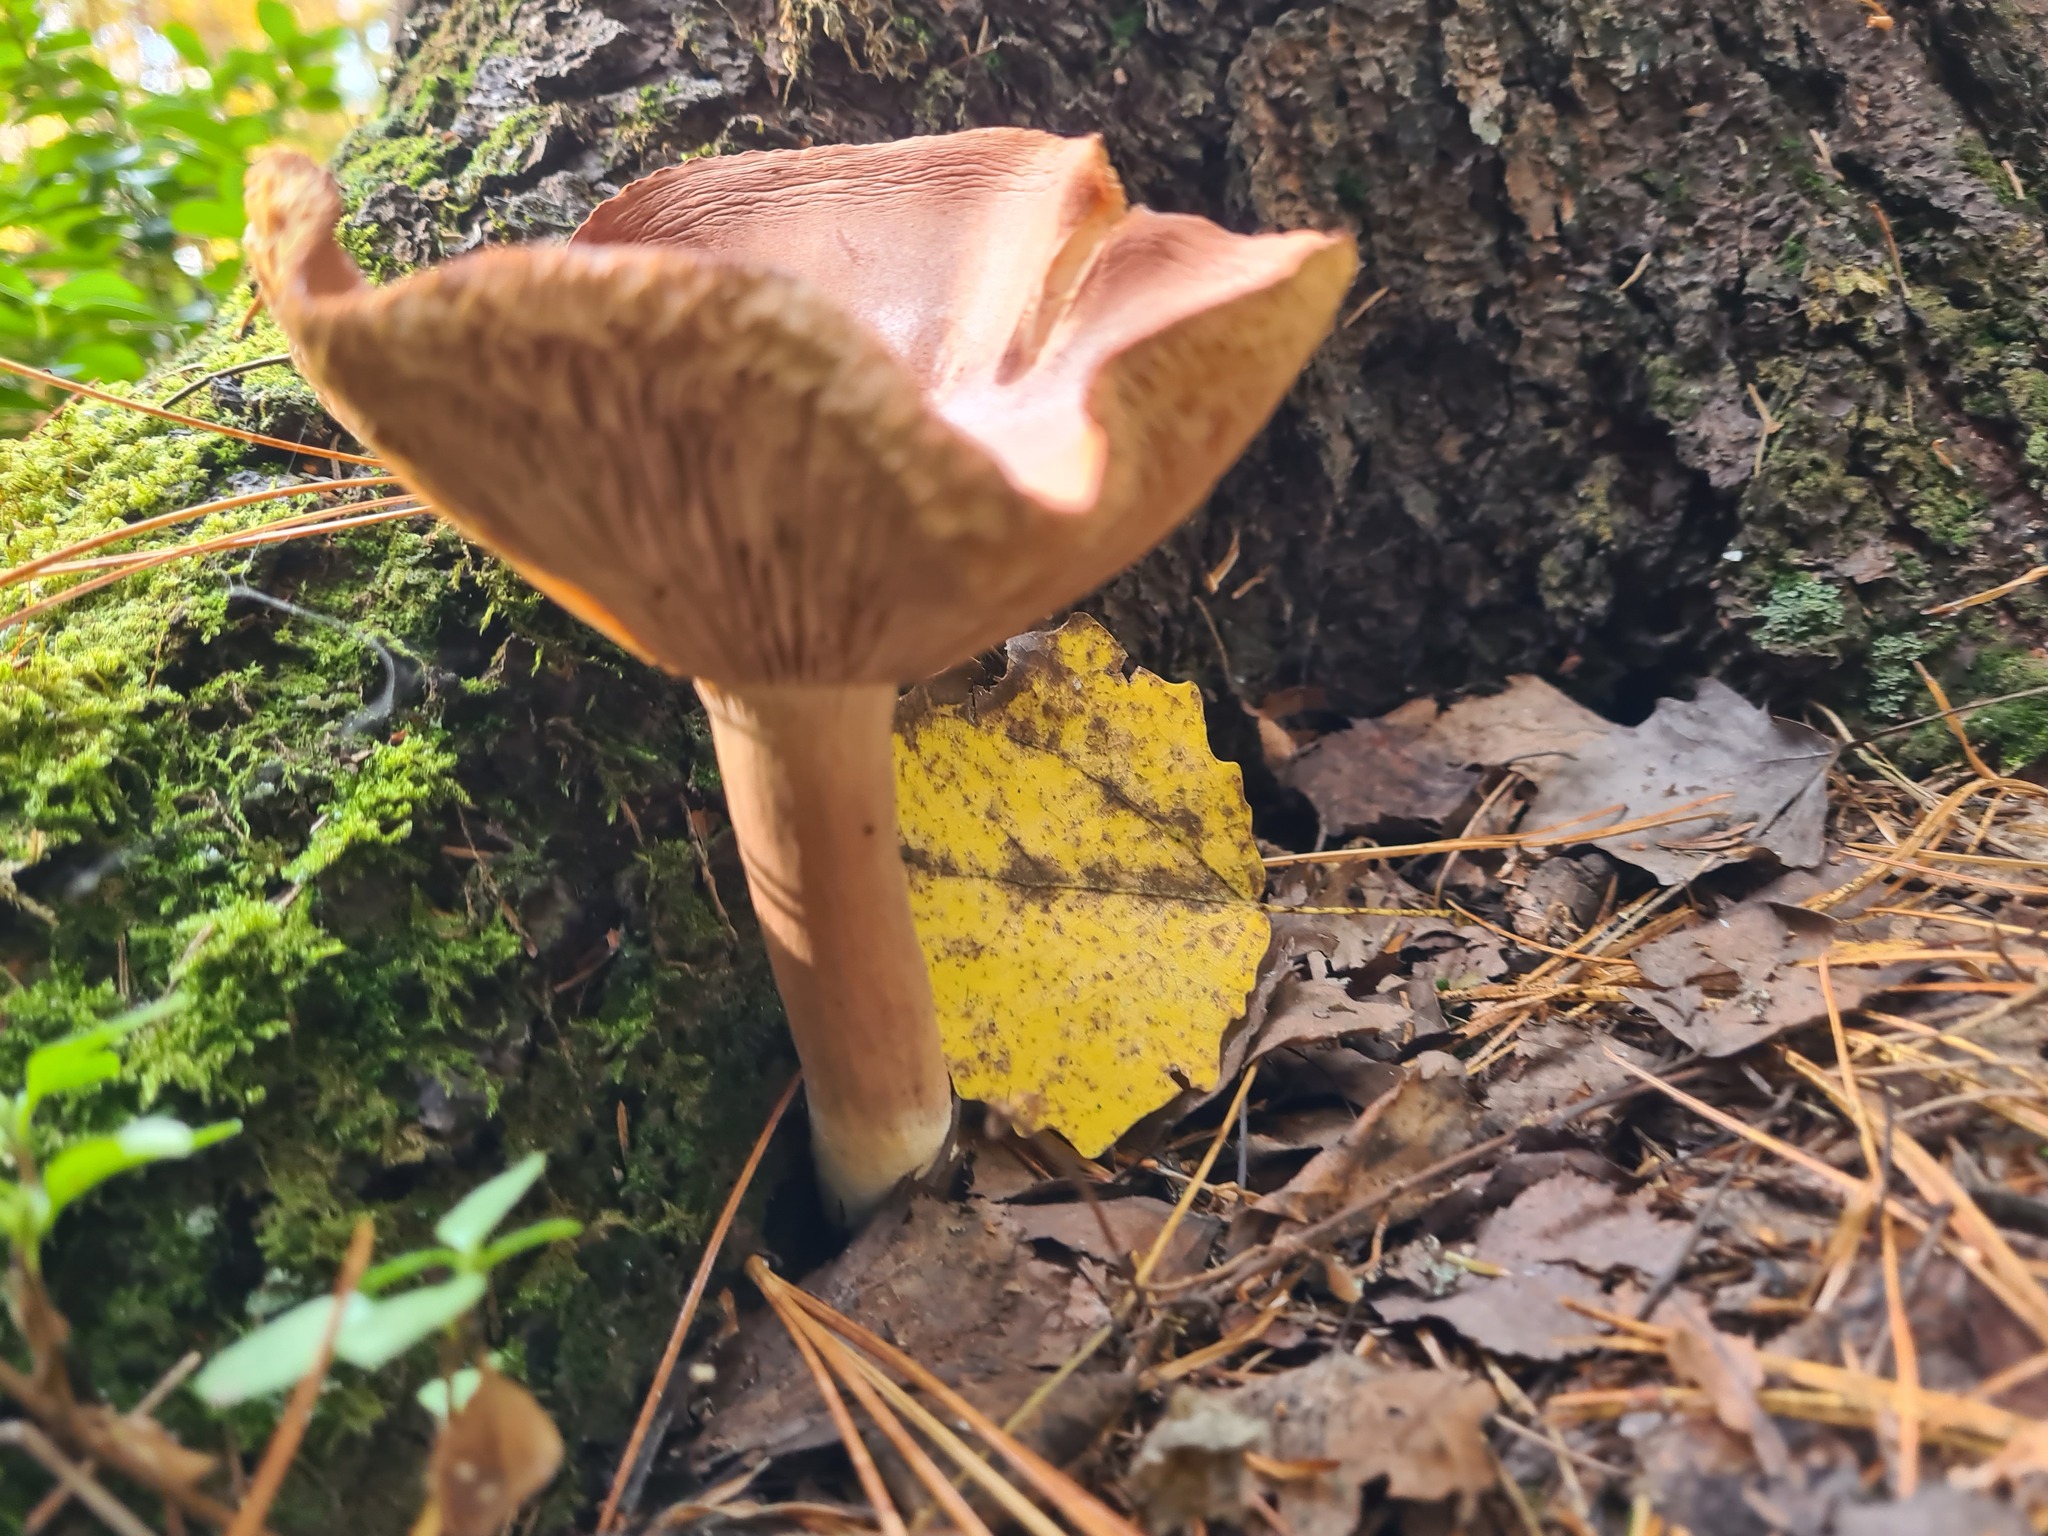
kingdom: Fungi
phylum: Basidiomycota
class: Agaricomycetes
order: Russulales
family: Russulaceae
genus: Lactarius
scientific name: Lactarius rufus
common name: Rufous milk-cap
